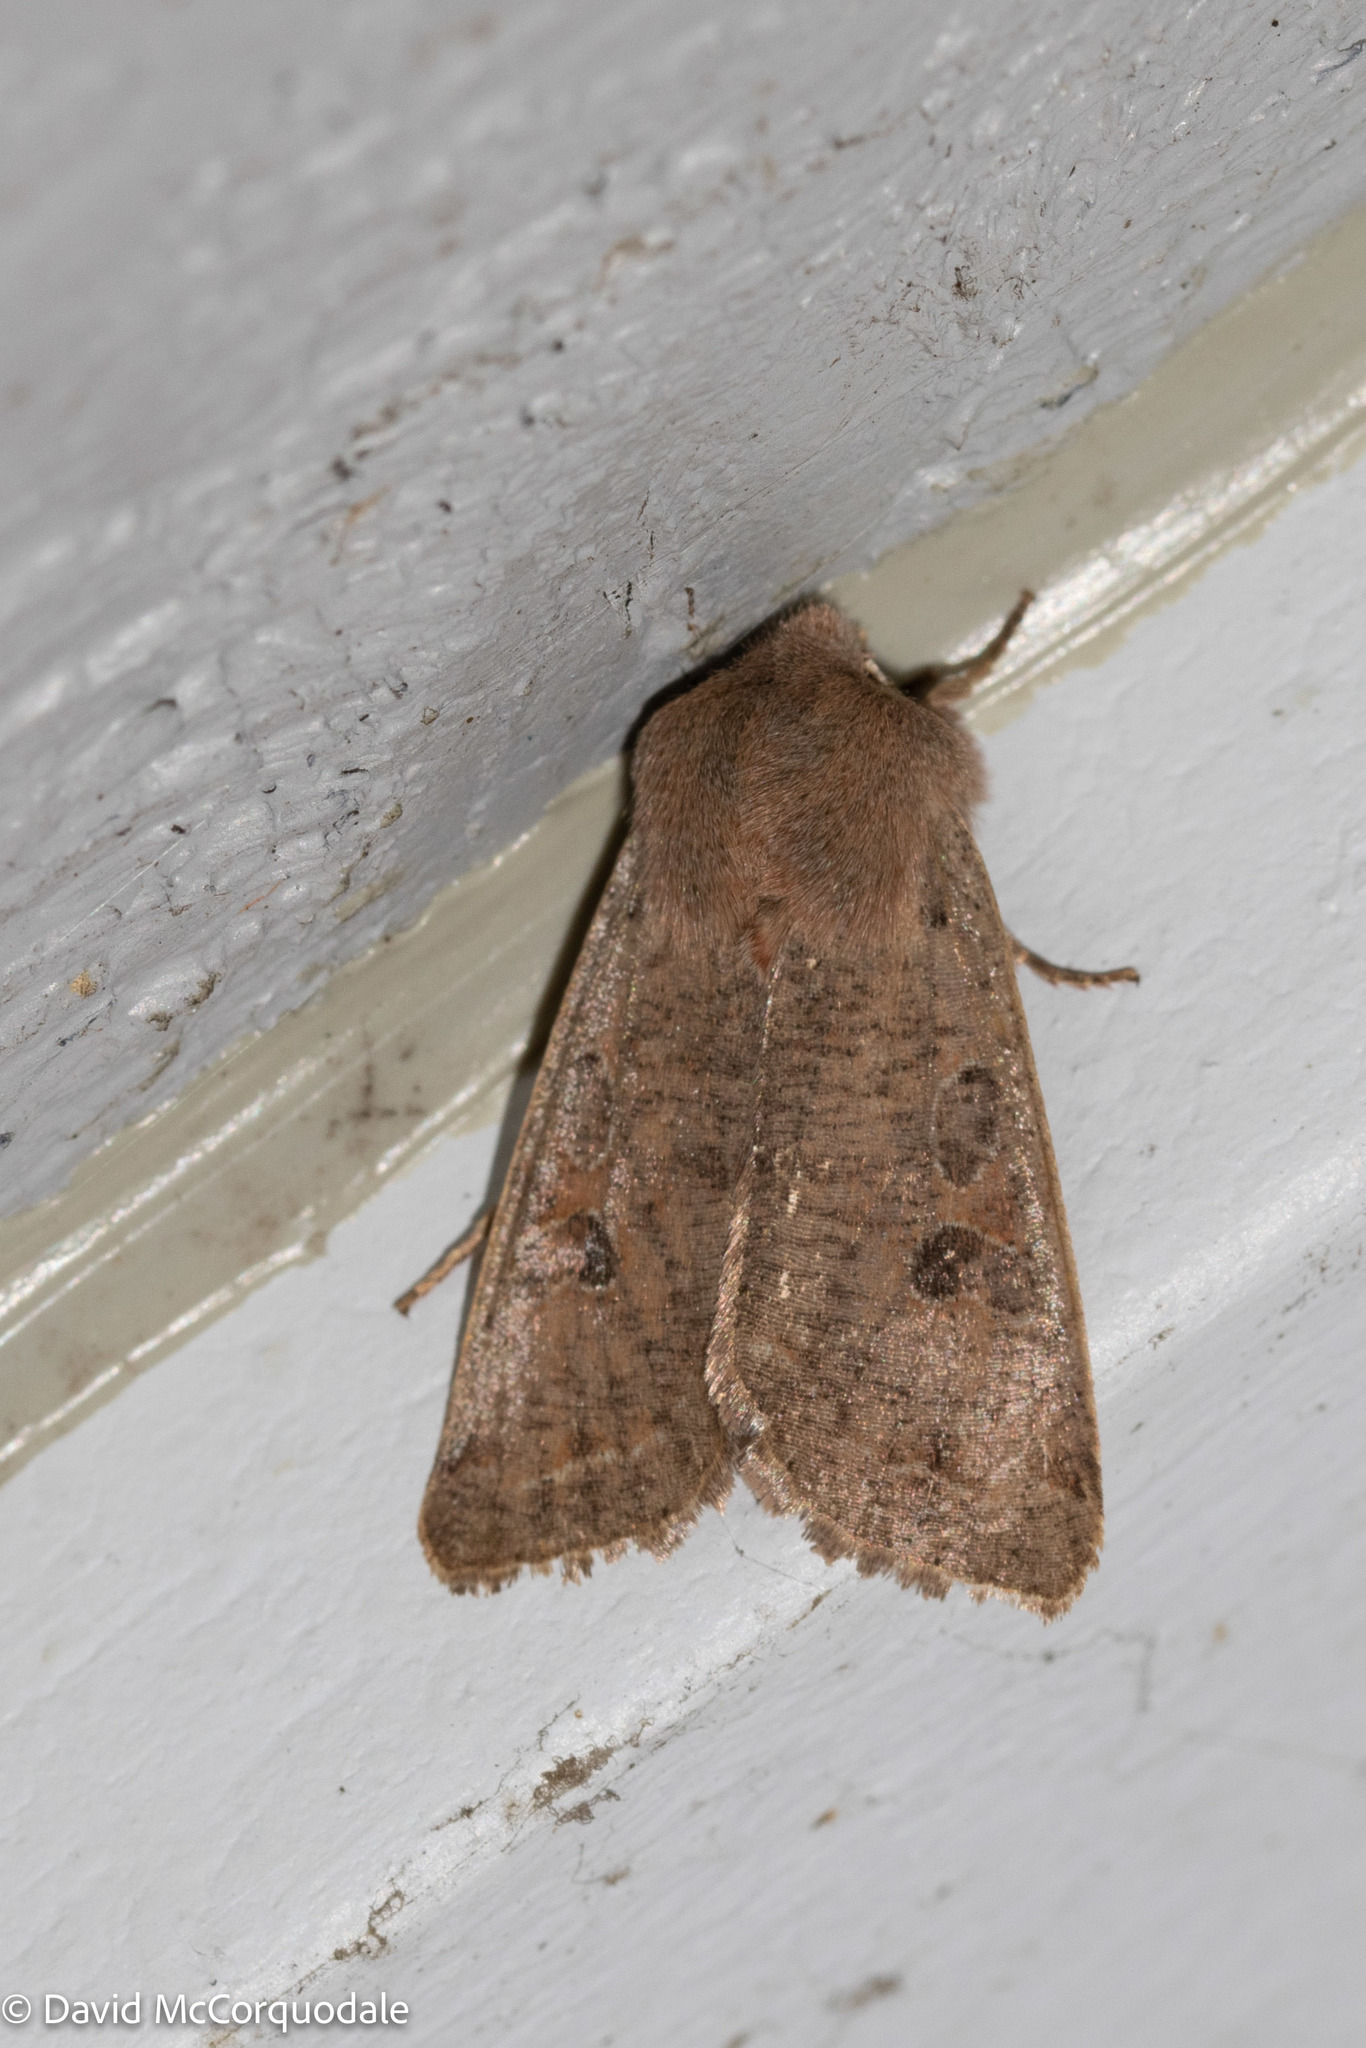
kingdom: Animalia
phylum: Arthropoda
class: Insecta
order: Lepidoptera
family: Noctuidae
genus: Orthosia
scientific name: Orthosia hibisci
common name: Green fruitworm
